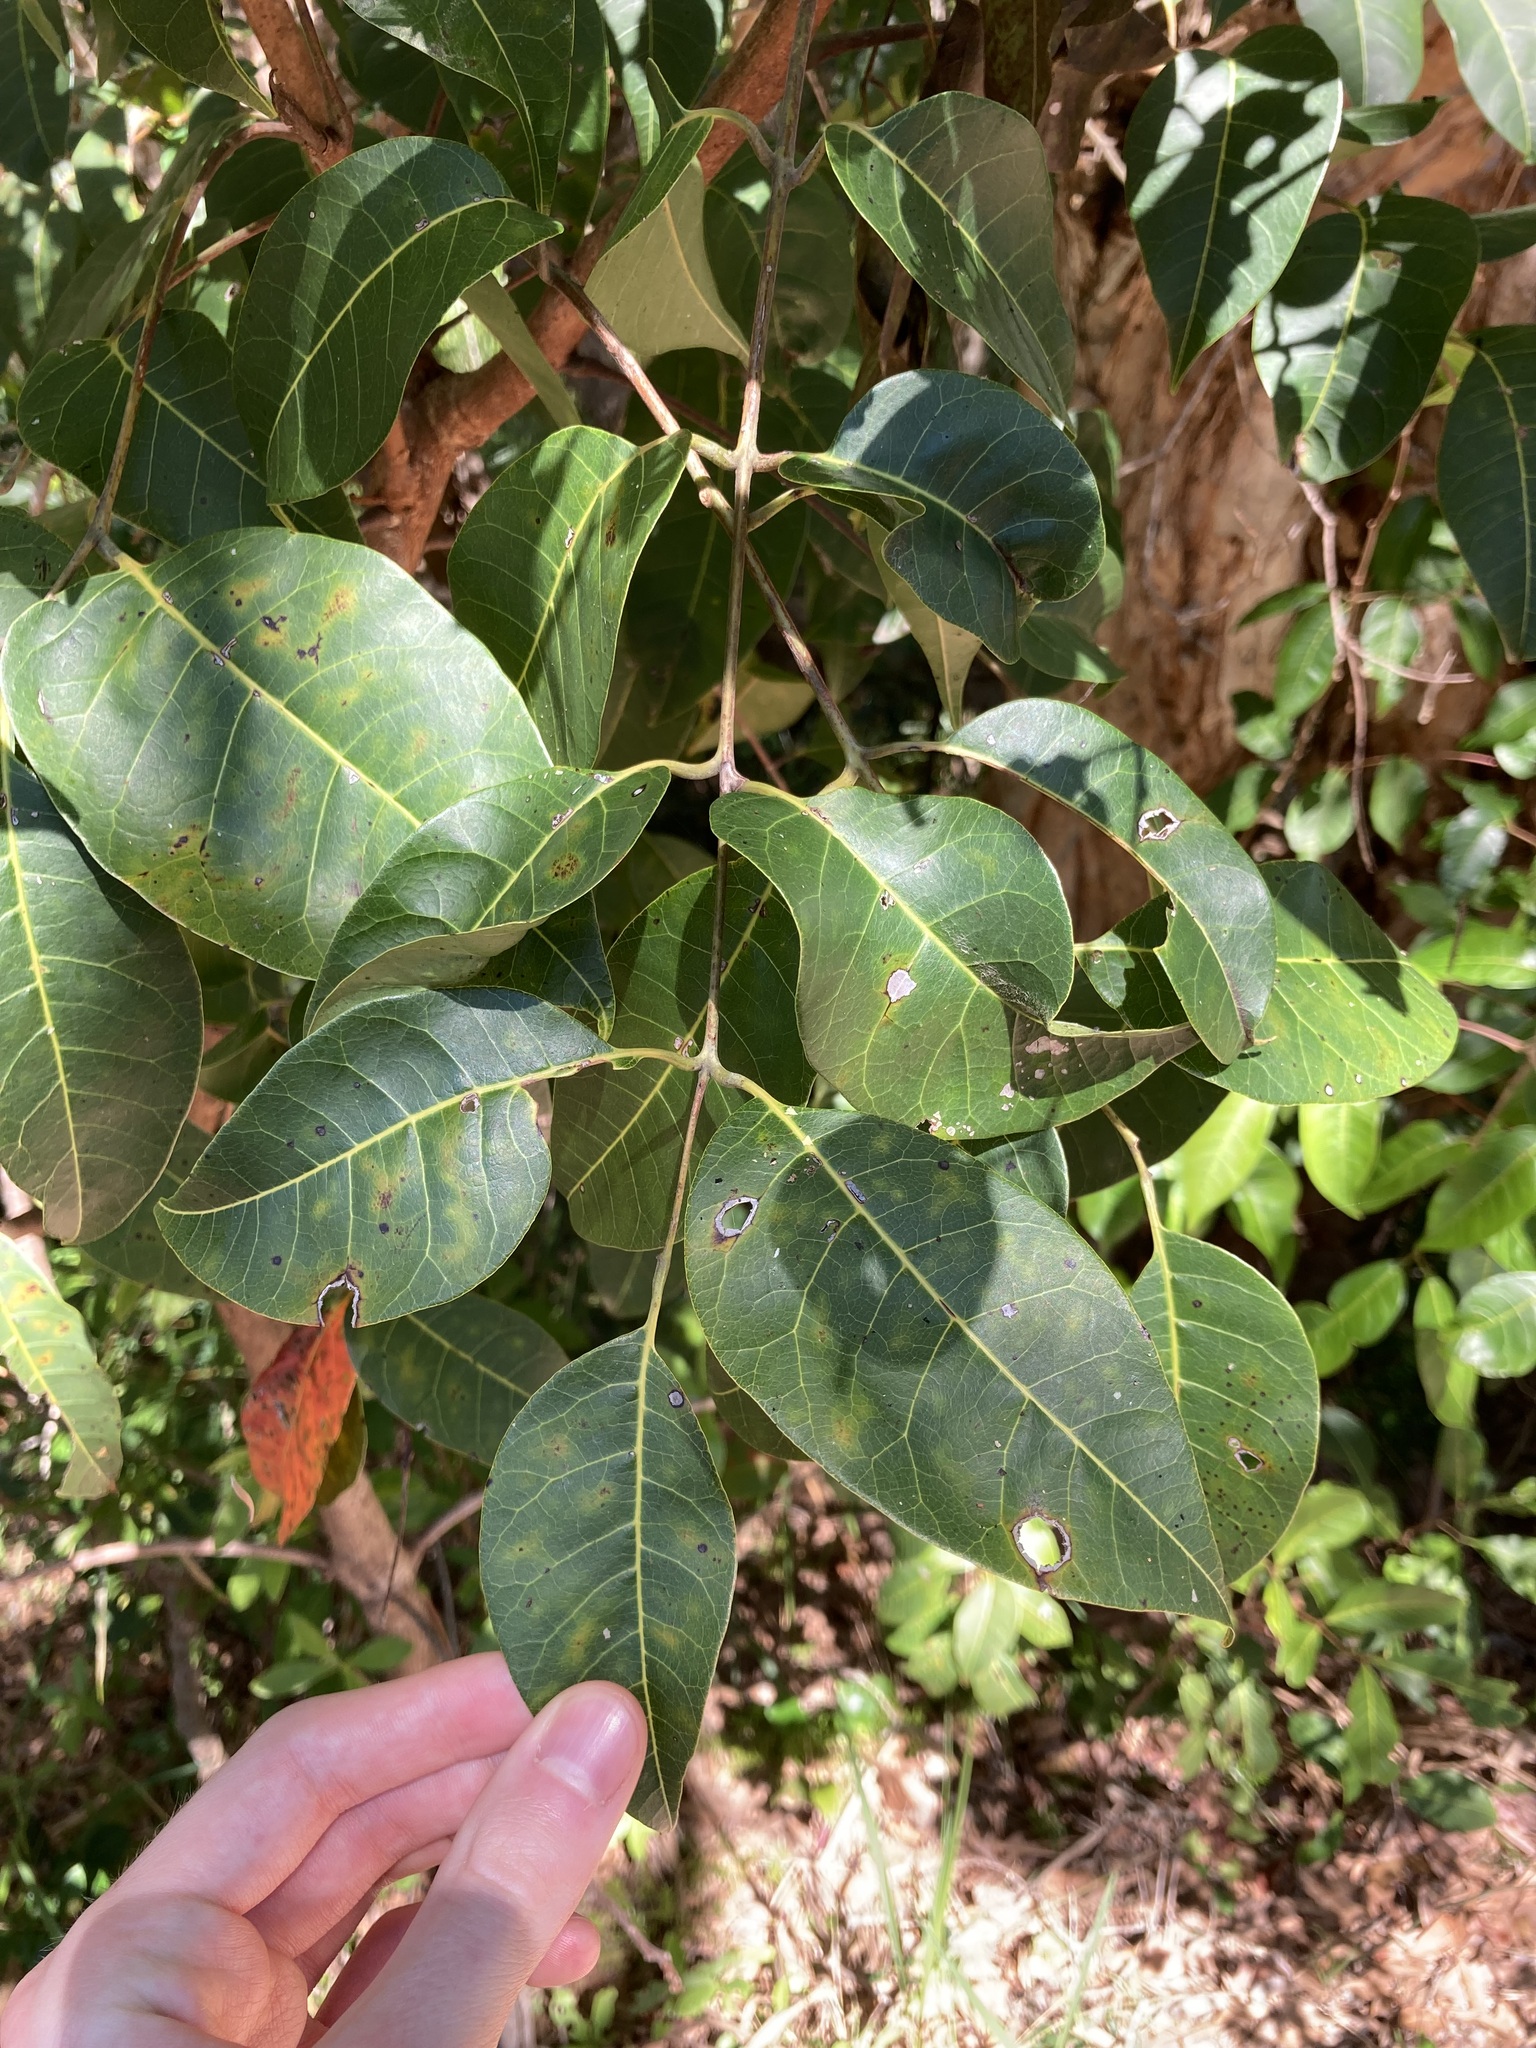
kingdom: Plantae
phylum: Tracheophyta
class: Magnoliopsida
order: Sapindales
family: Anacardiaceae
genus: Euroschinus
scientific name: Euroschinus falcatus
